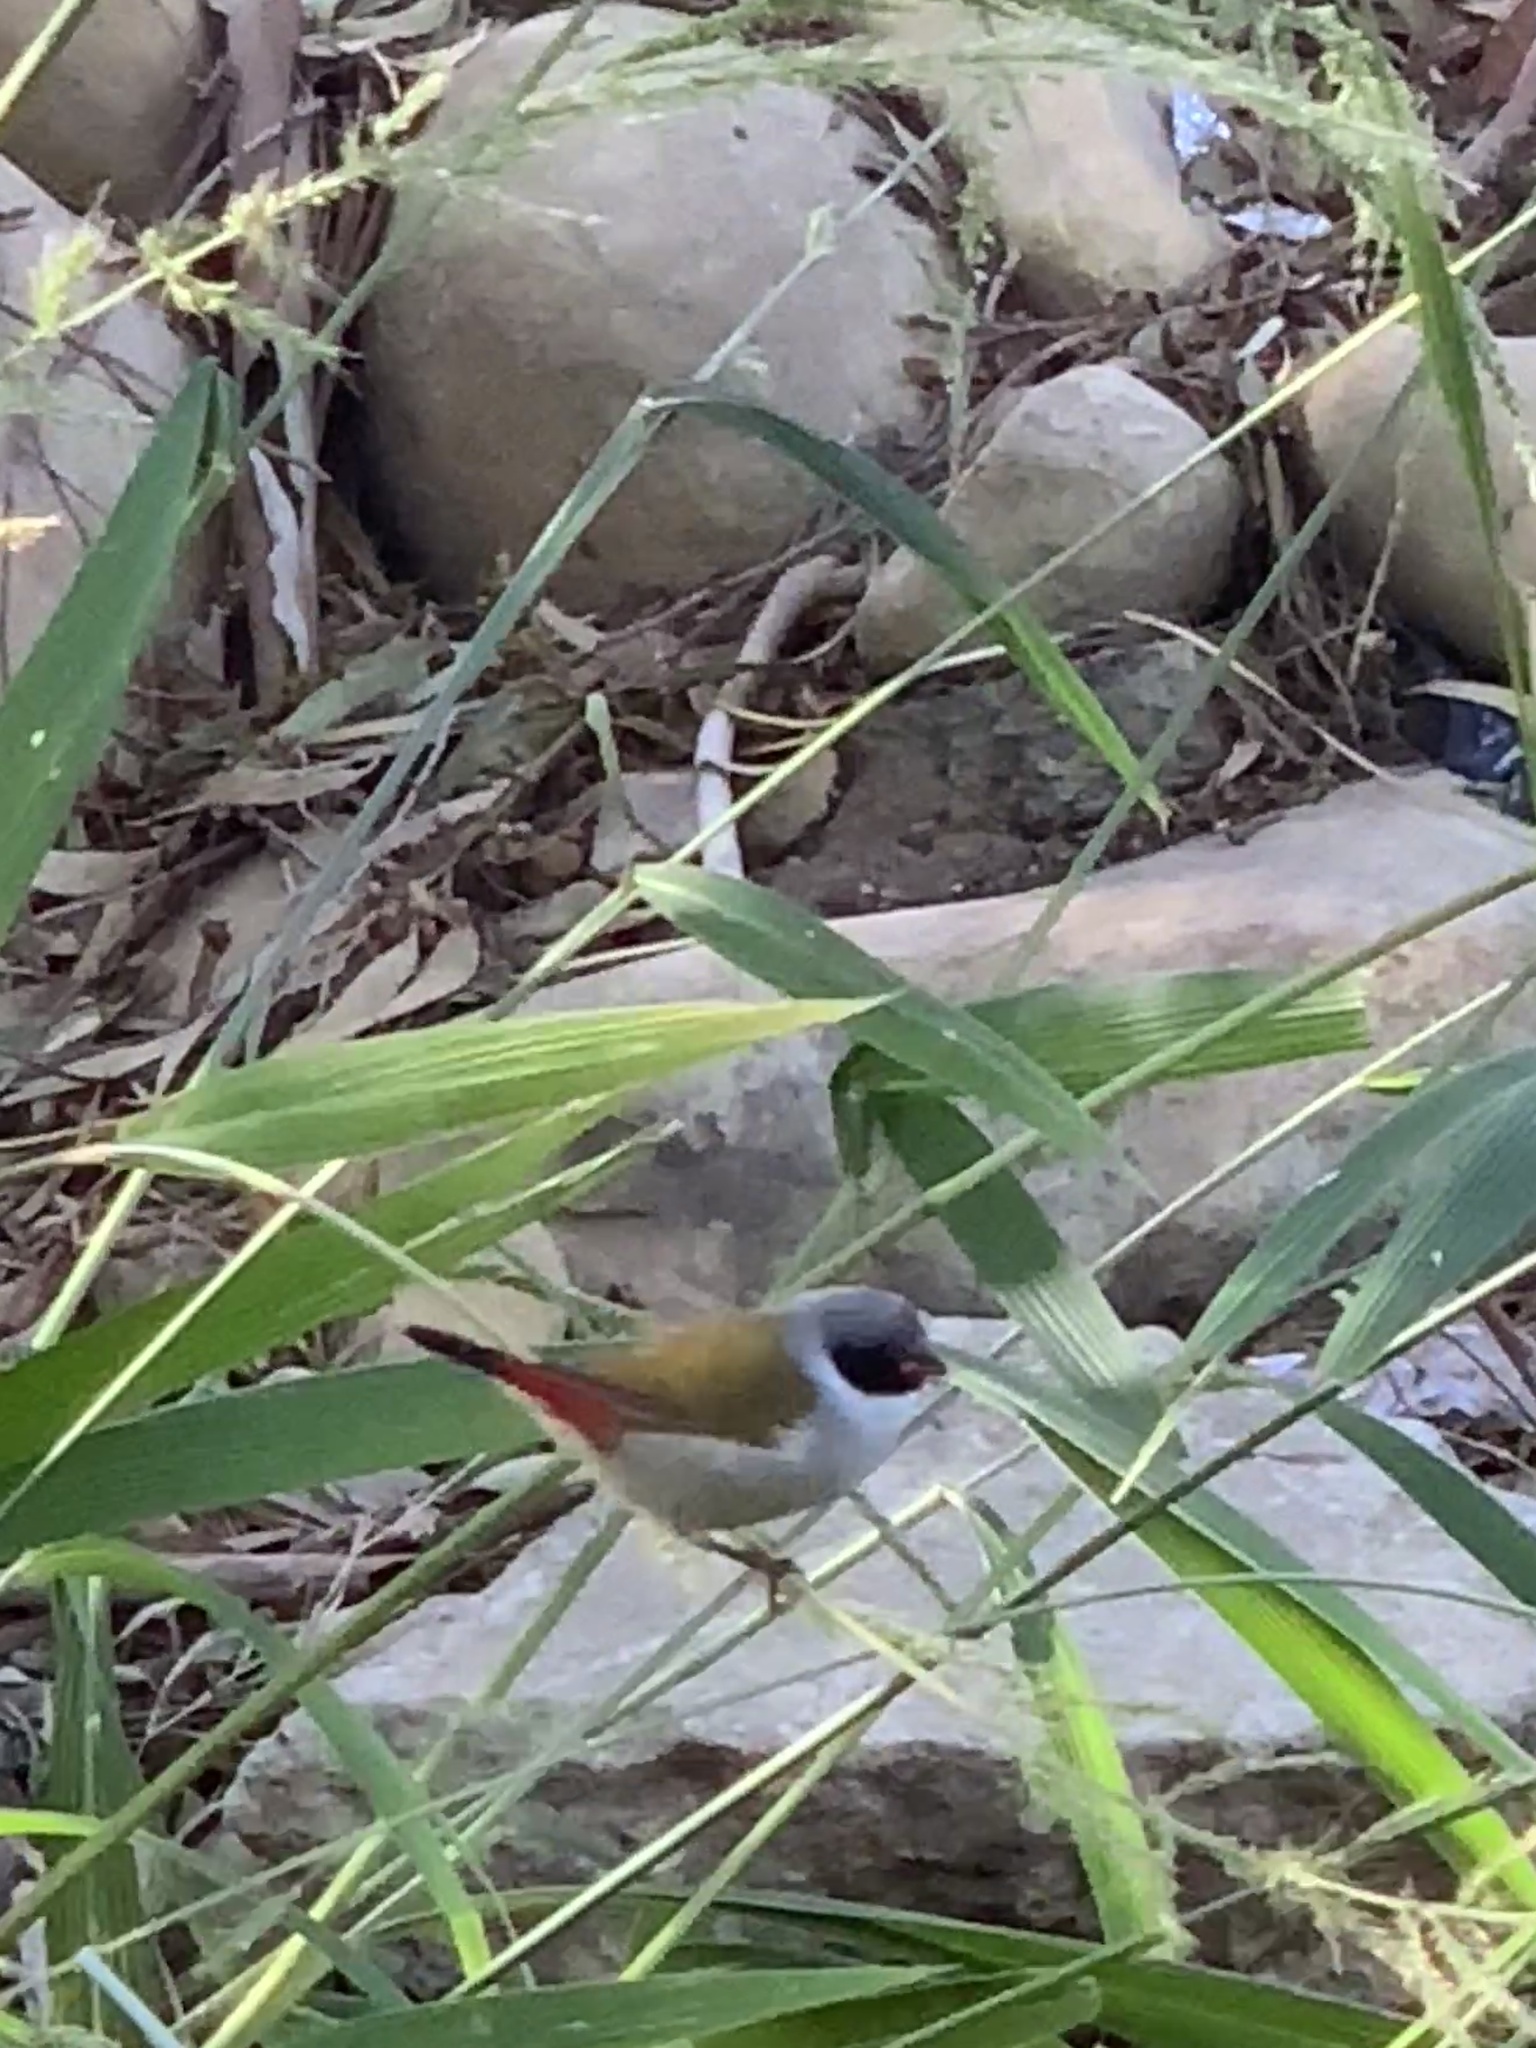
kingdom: Animalia
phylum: Chordata
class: Aves
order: Passeriformes
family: Estrildidae
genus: Coccopygia
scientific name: Coccopygia melanotis
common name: Swee waxbill
